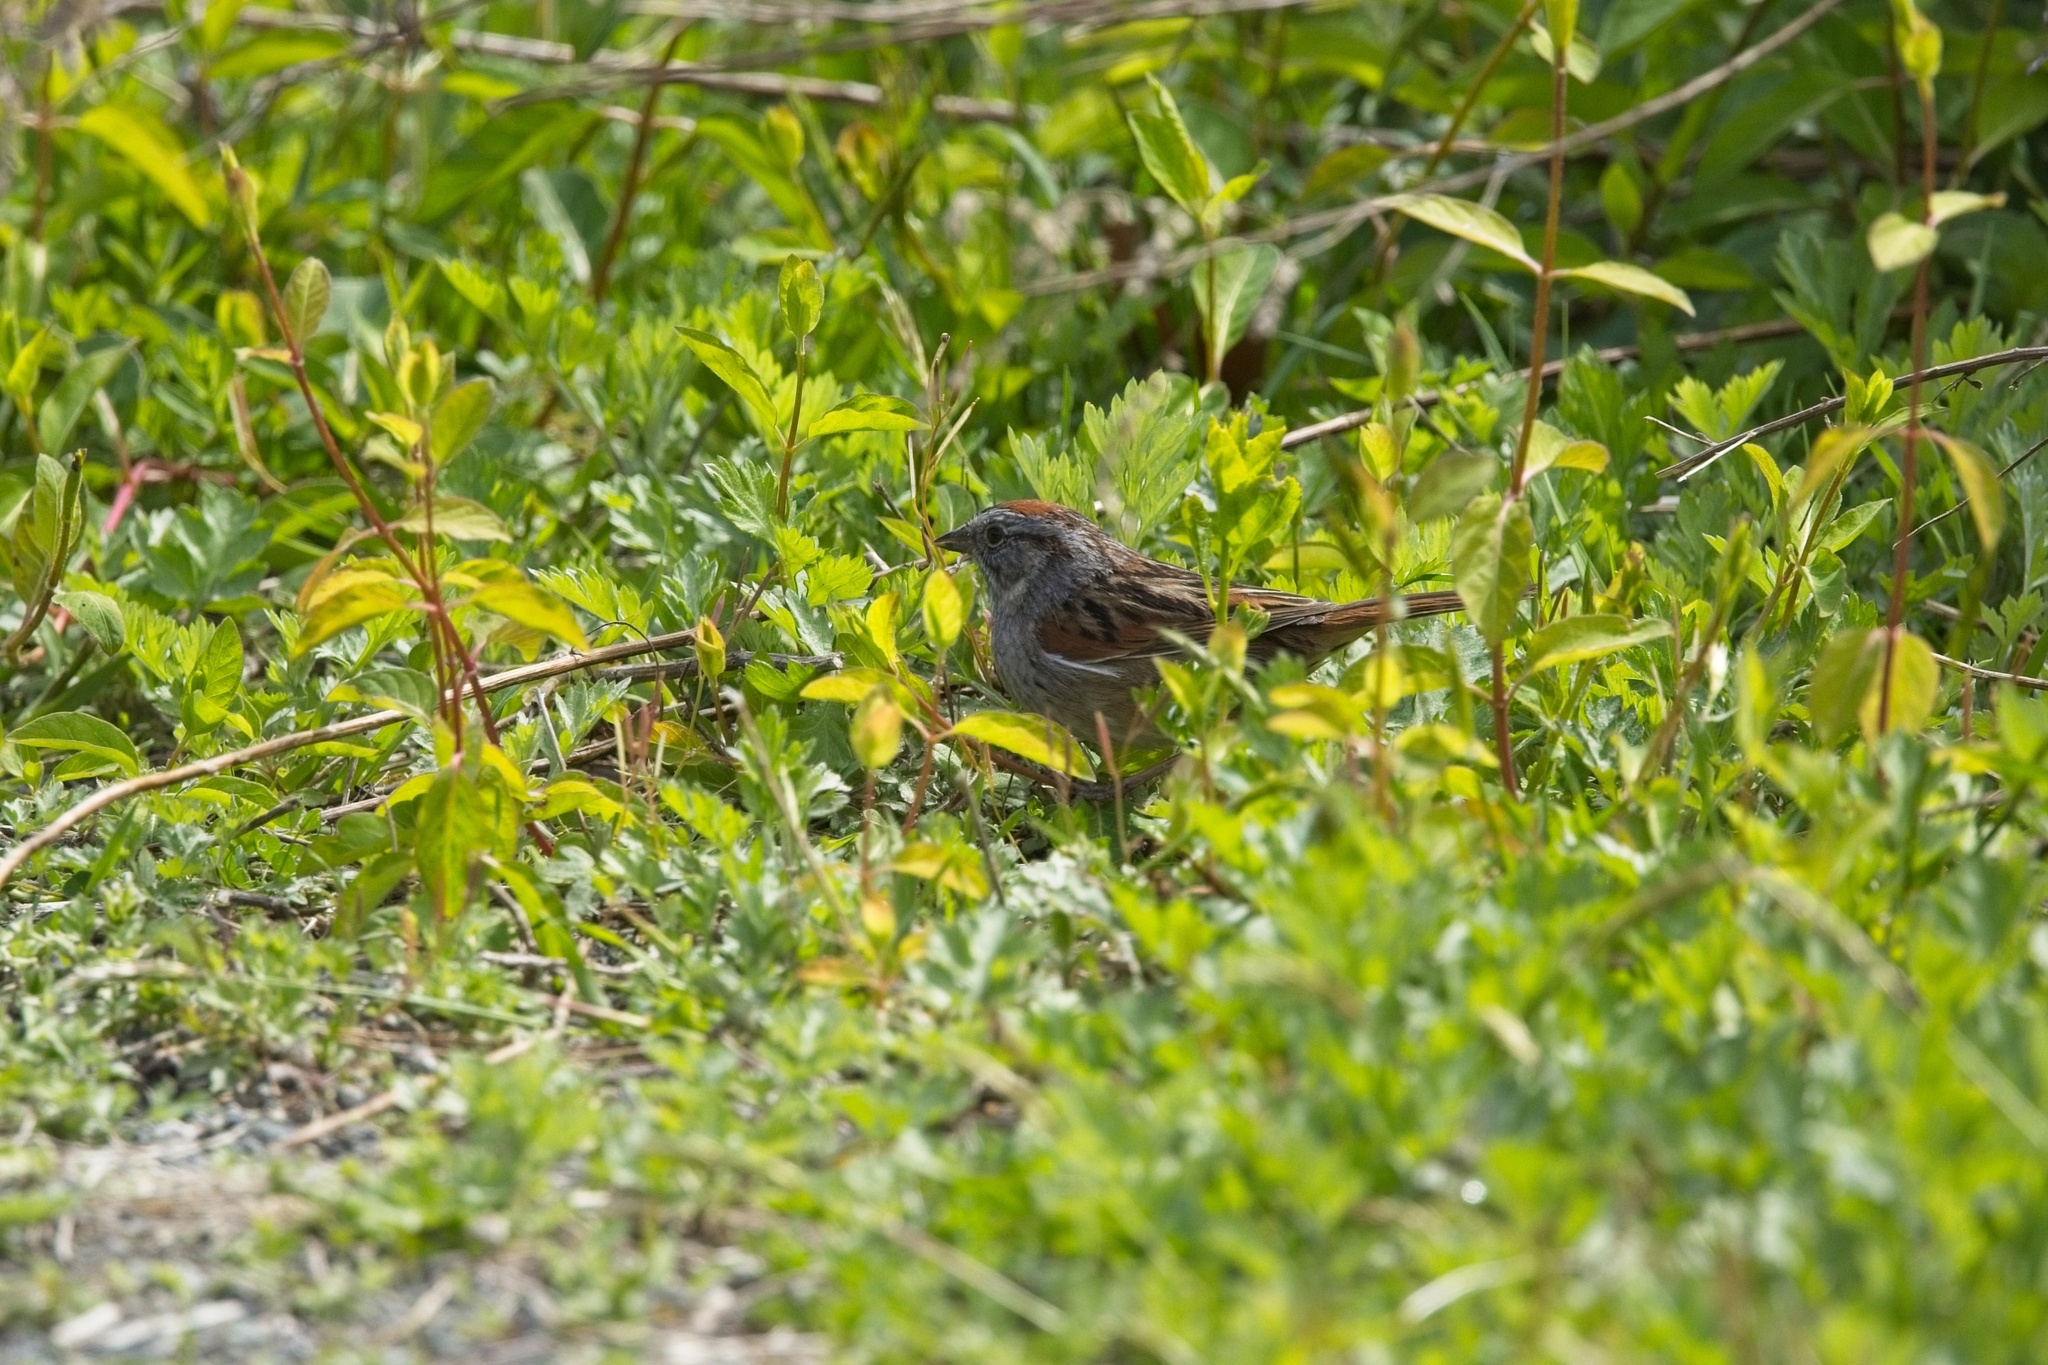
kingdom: Animalia
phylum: Chordata
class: Aves
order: Passeriformes
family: Passerellidae
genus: Melospiza
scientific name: Melospiza georgiana
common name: Swamp sparrow
